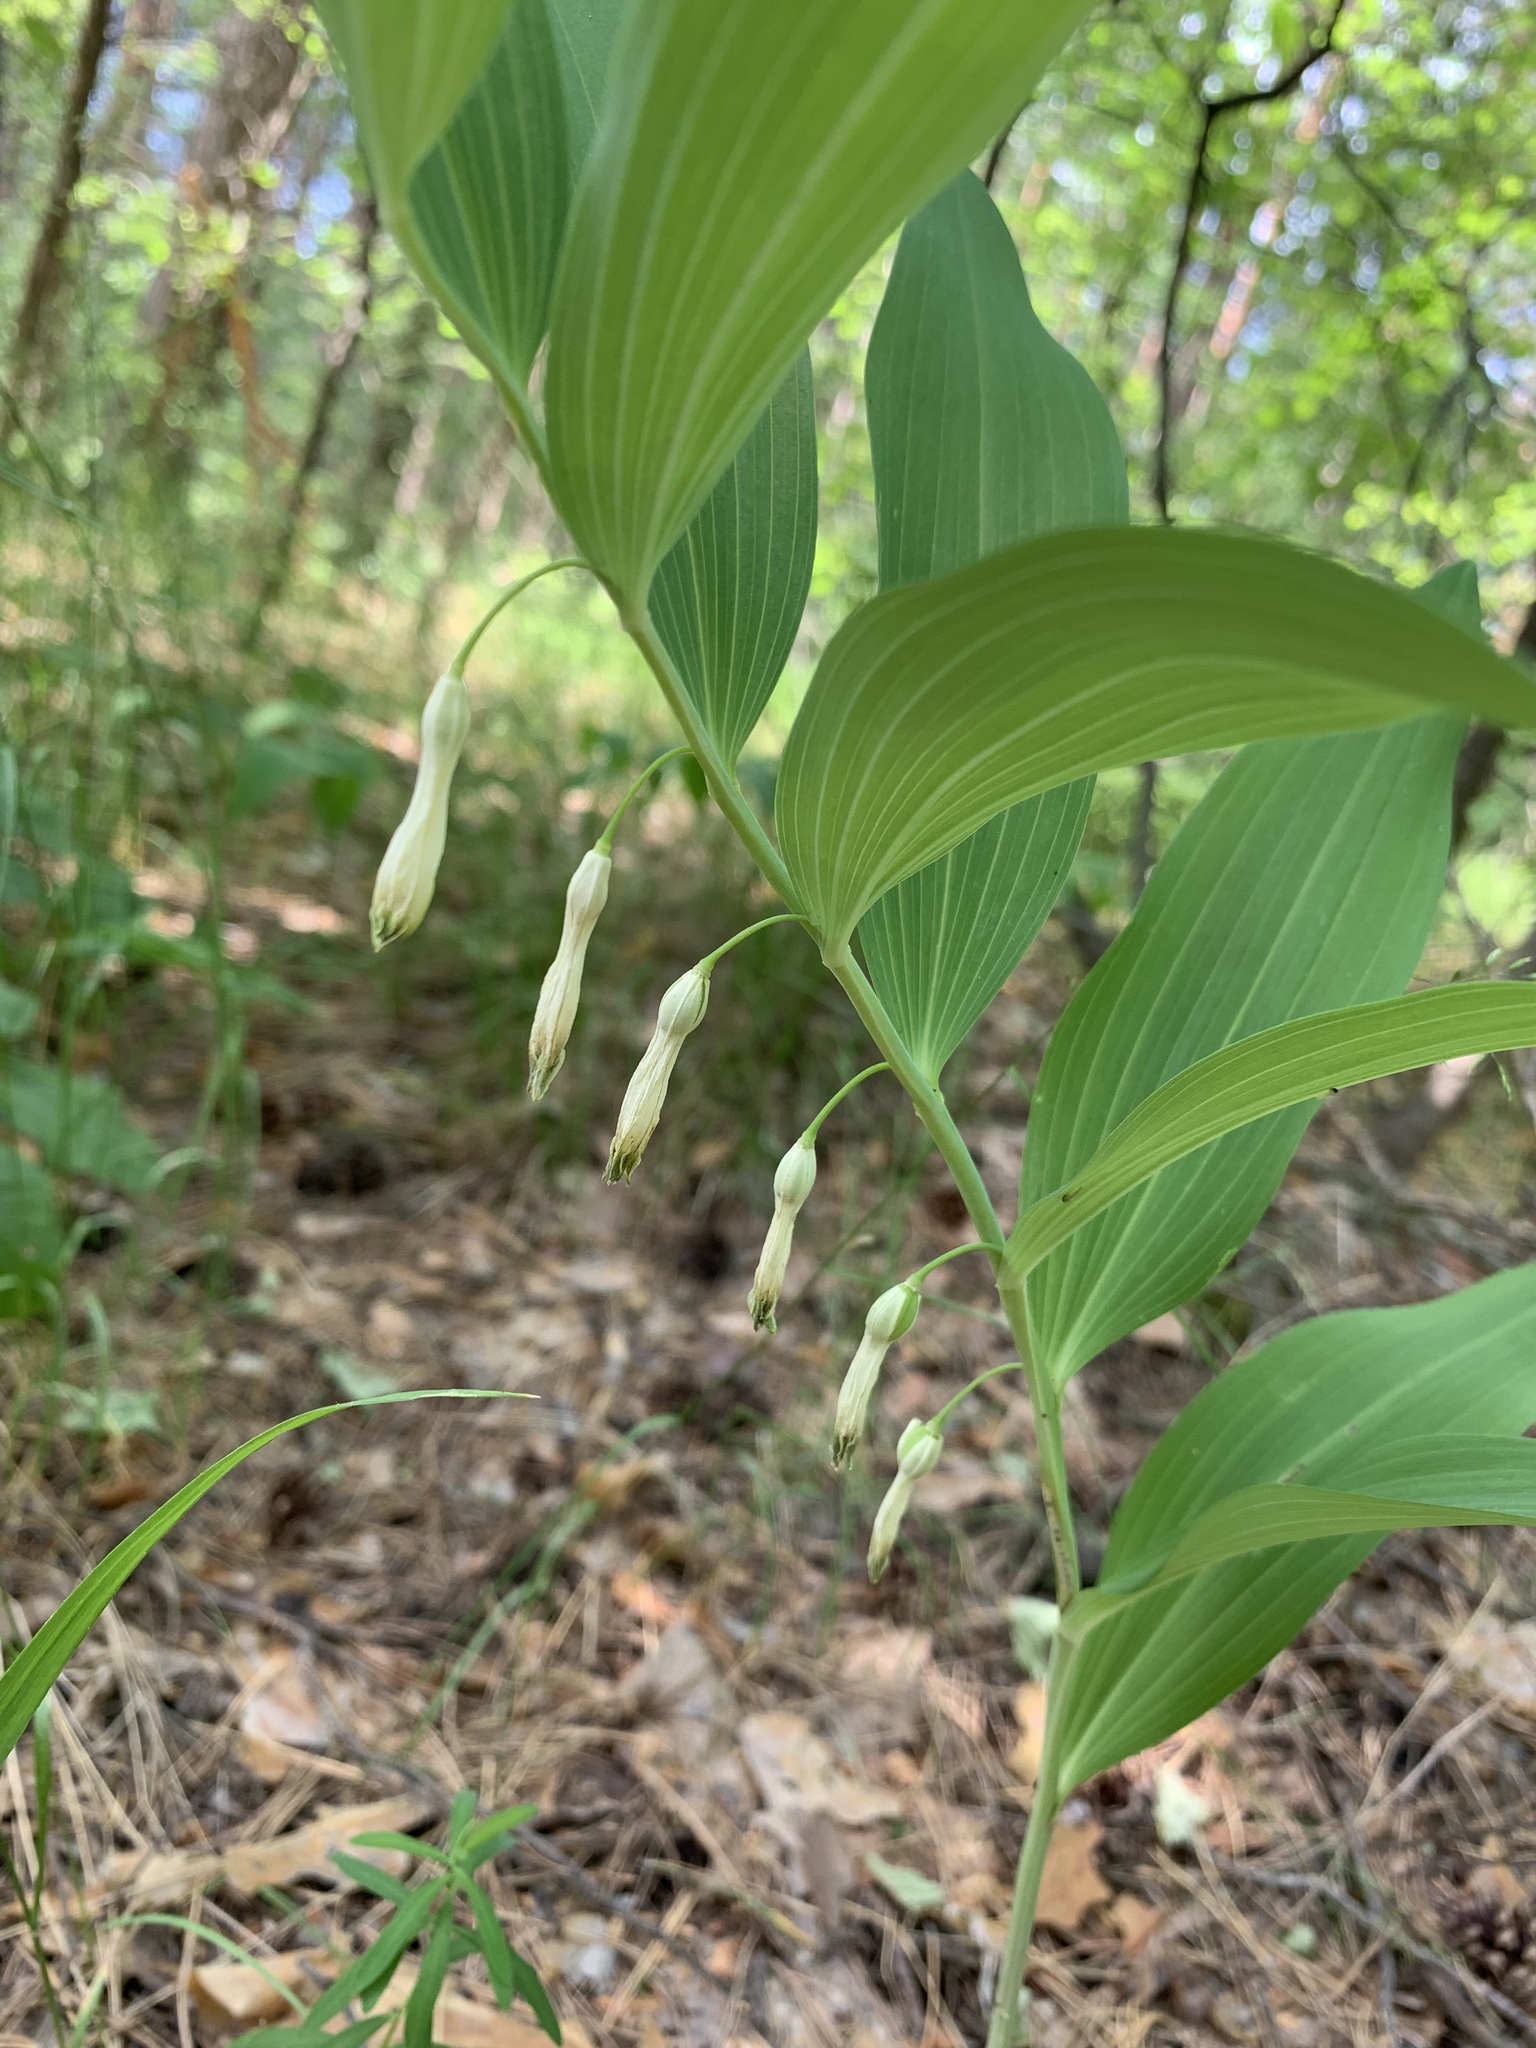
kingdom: Plantae
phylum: Tracheophyta
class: Liliopsida
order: Asparagales
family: Asparagaceae
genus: Polygonatum
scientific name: Polygonatum odoratum
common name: Angular solomon's-seal
